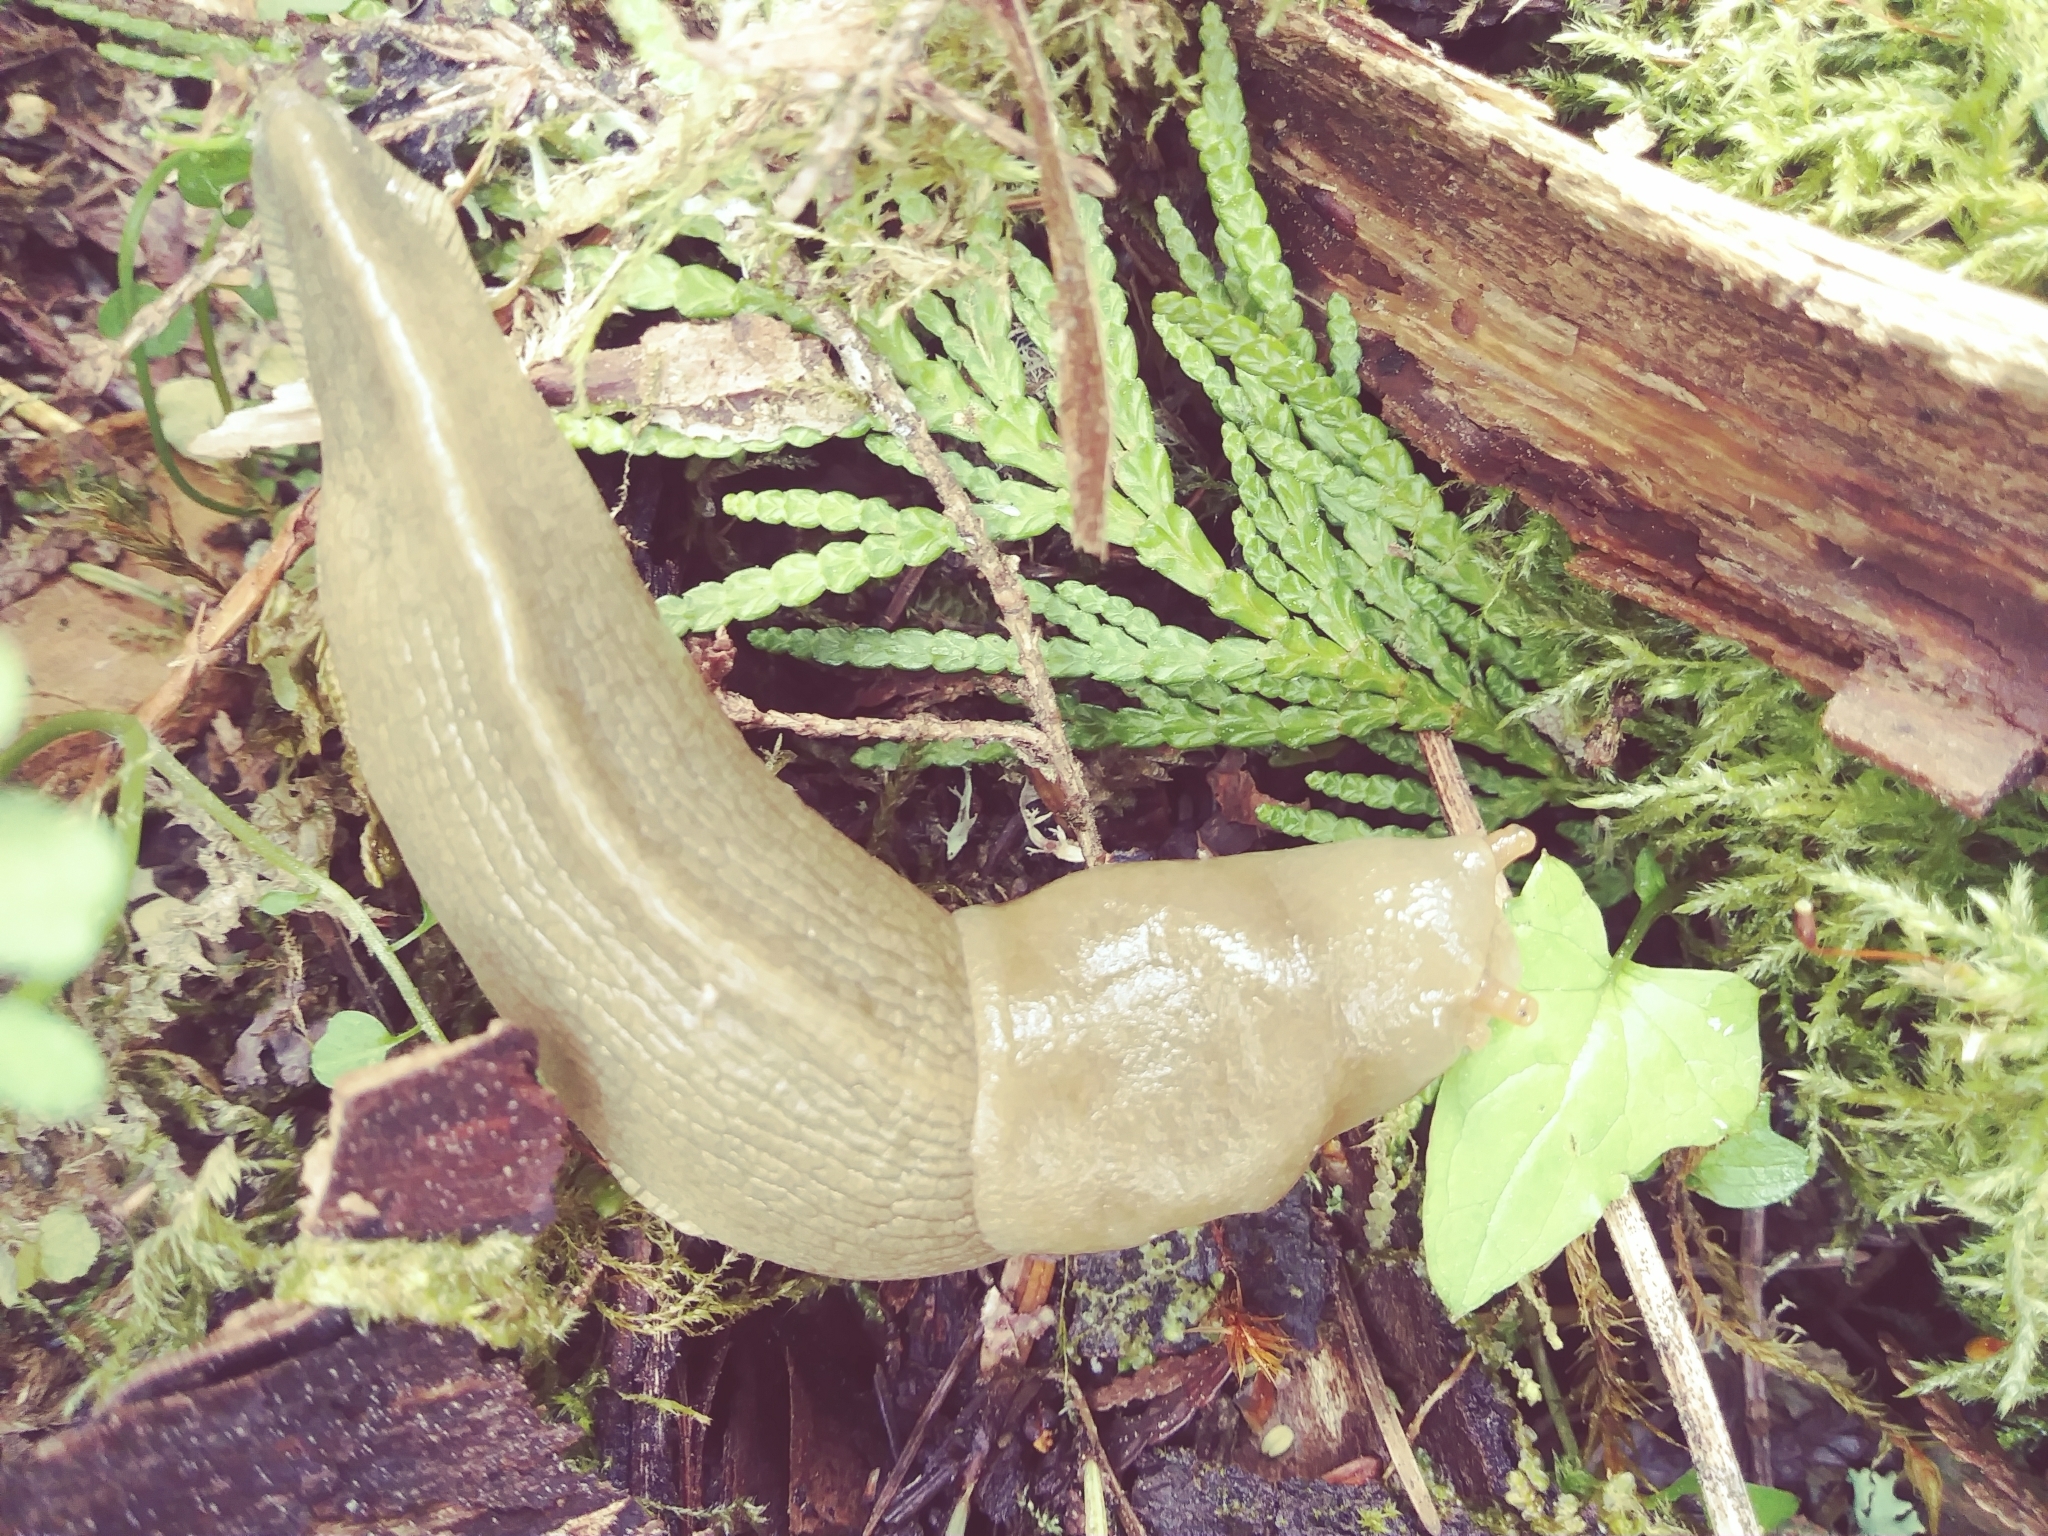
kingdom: Animalia
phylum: Mollusca
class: Gastropoda
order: Stylommatophora
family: Ariolimacidae
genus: Ariolimax
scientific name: Ariolimax columbianus
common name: Pacific banana slug
